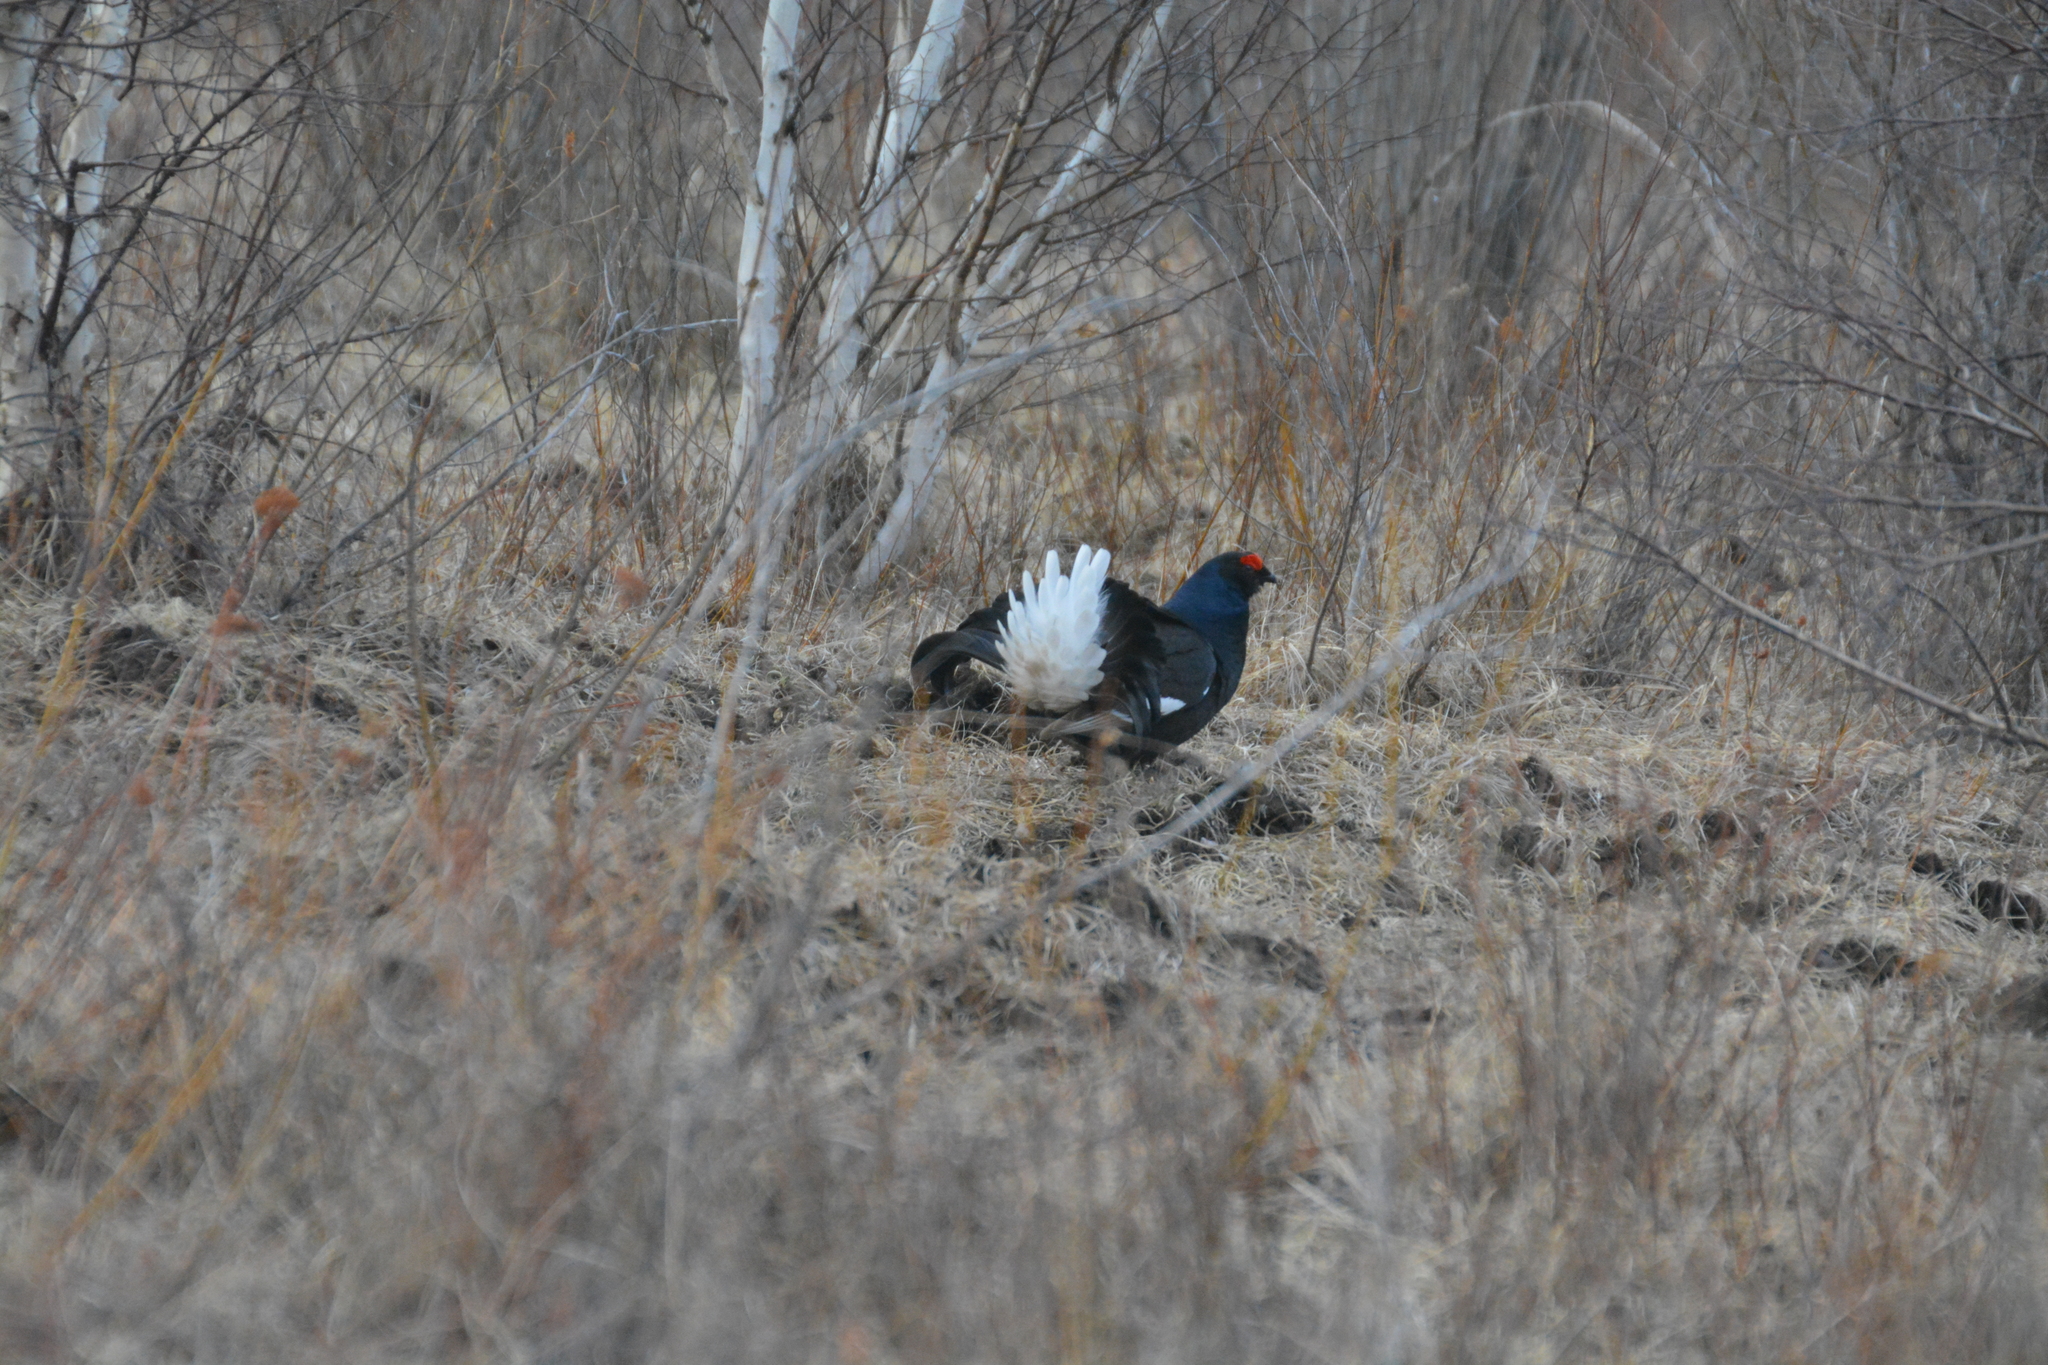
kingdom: Animalia
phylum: Chordata
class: Aves
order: Galliformes
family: Phasianidae
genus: Lyrurus
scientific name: Lyrurus tetrix
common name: Black grouse
